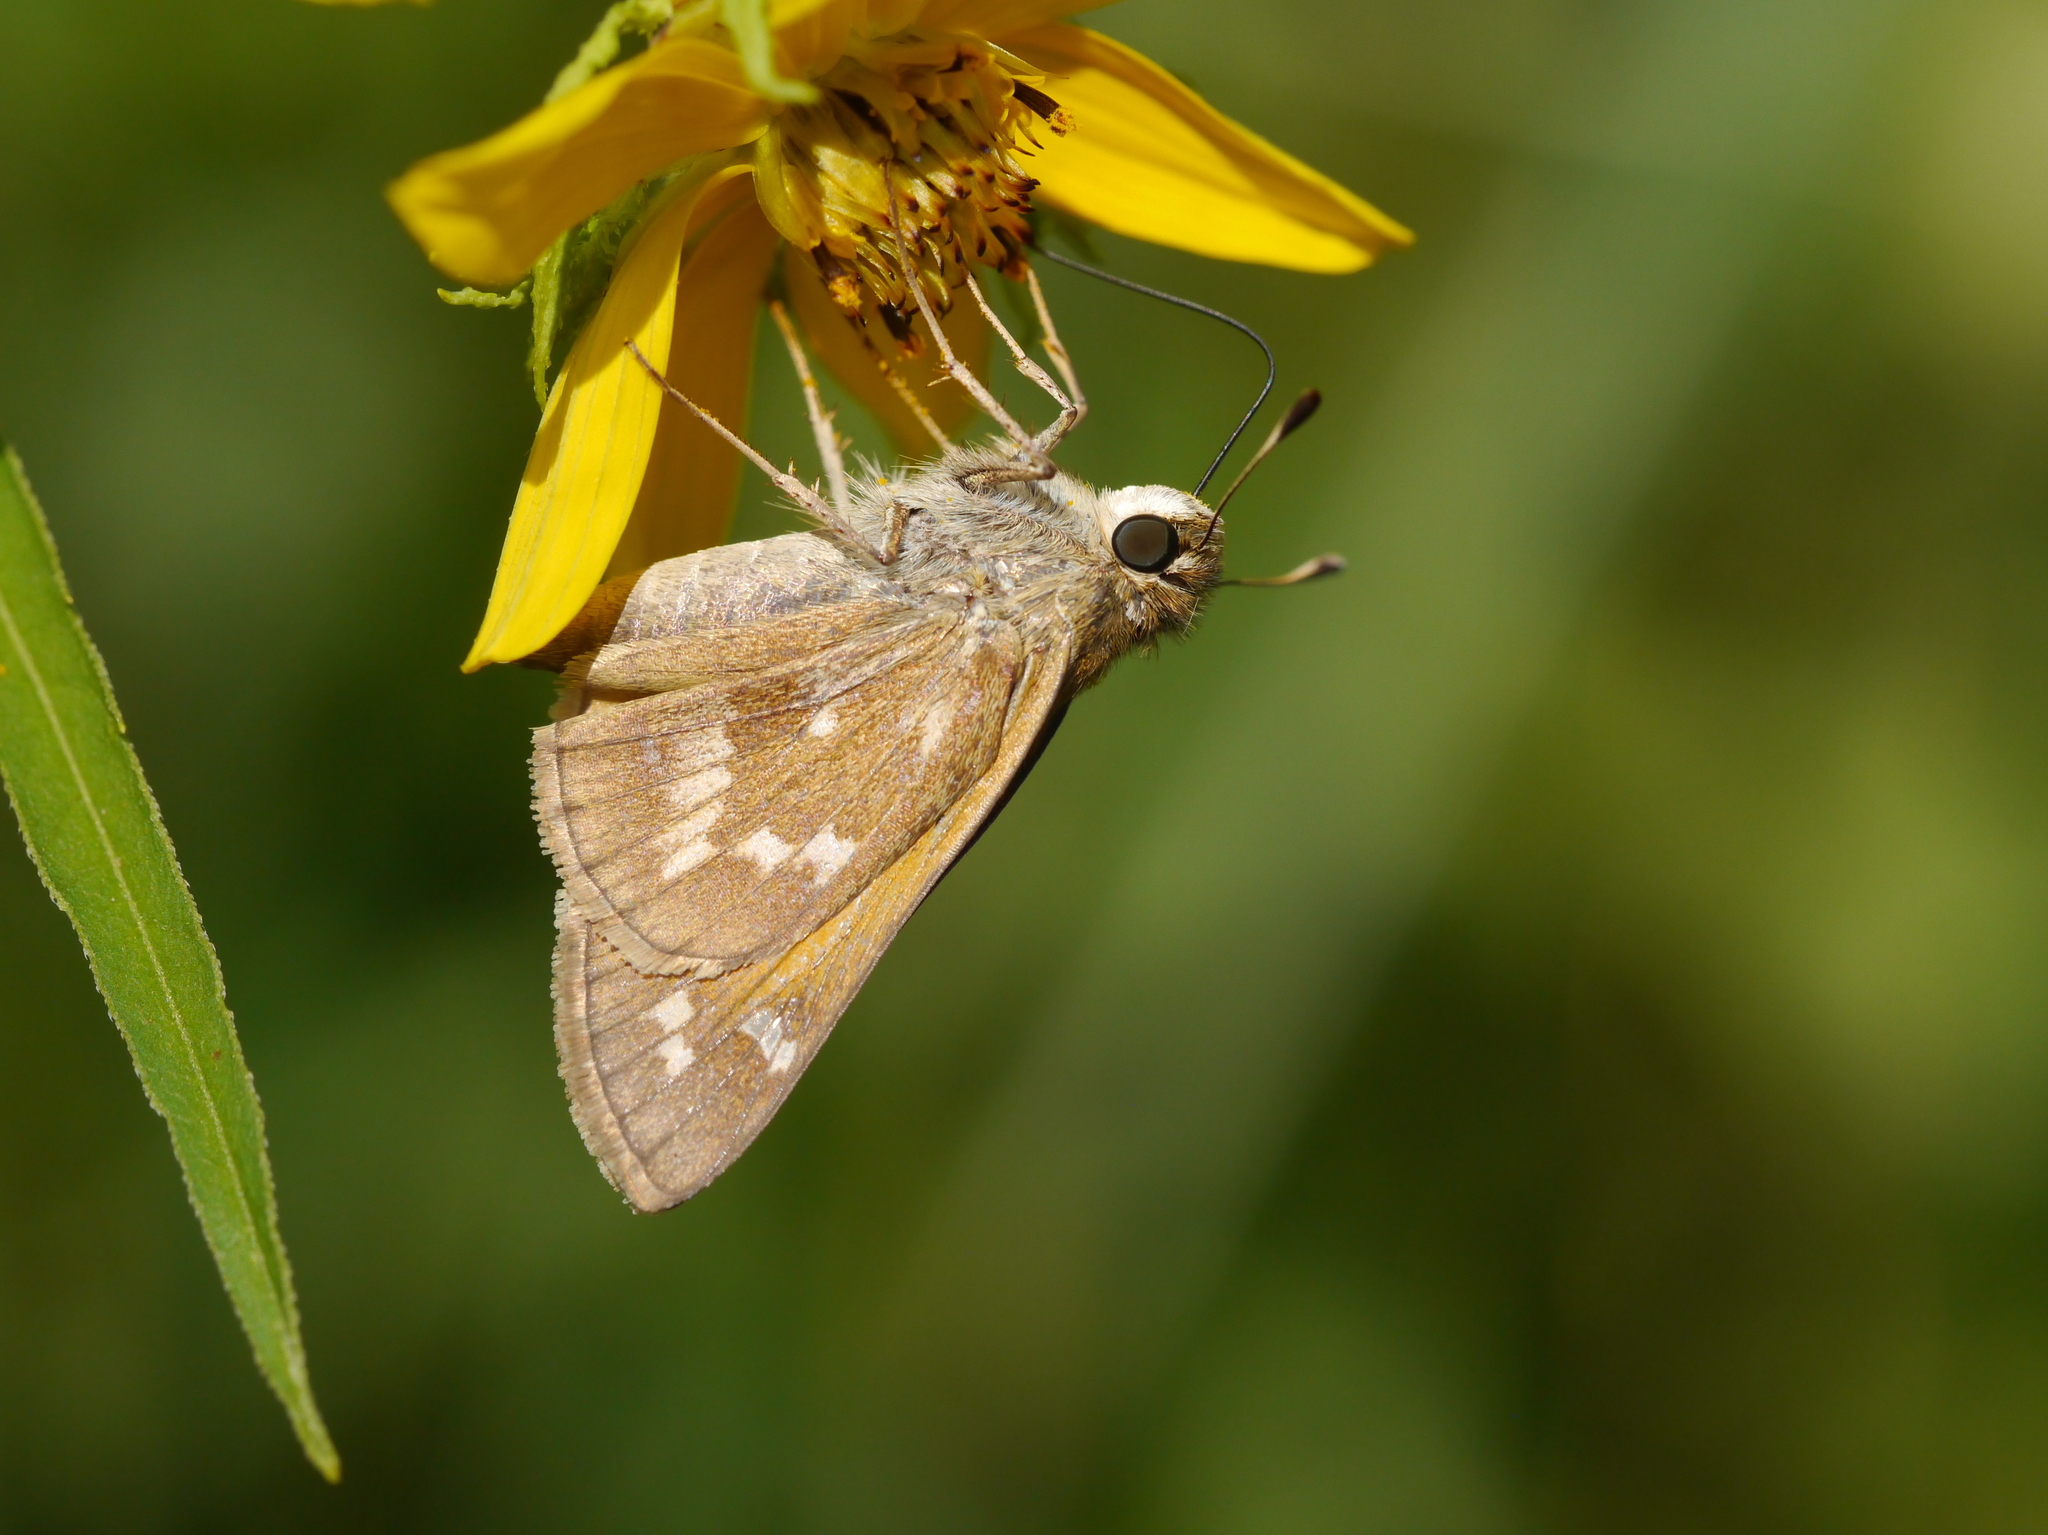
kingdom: Animalia
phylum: Arthropoda
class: Insecta
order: Lepidoptera
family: Hesperiidae
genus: Atalopedes
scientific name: Atalopedes
